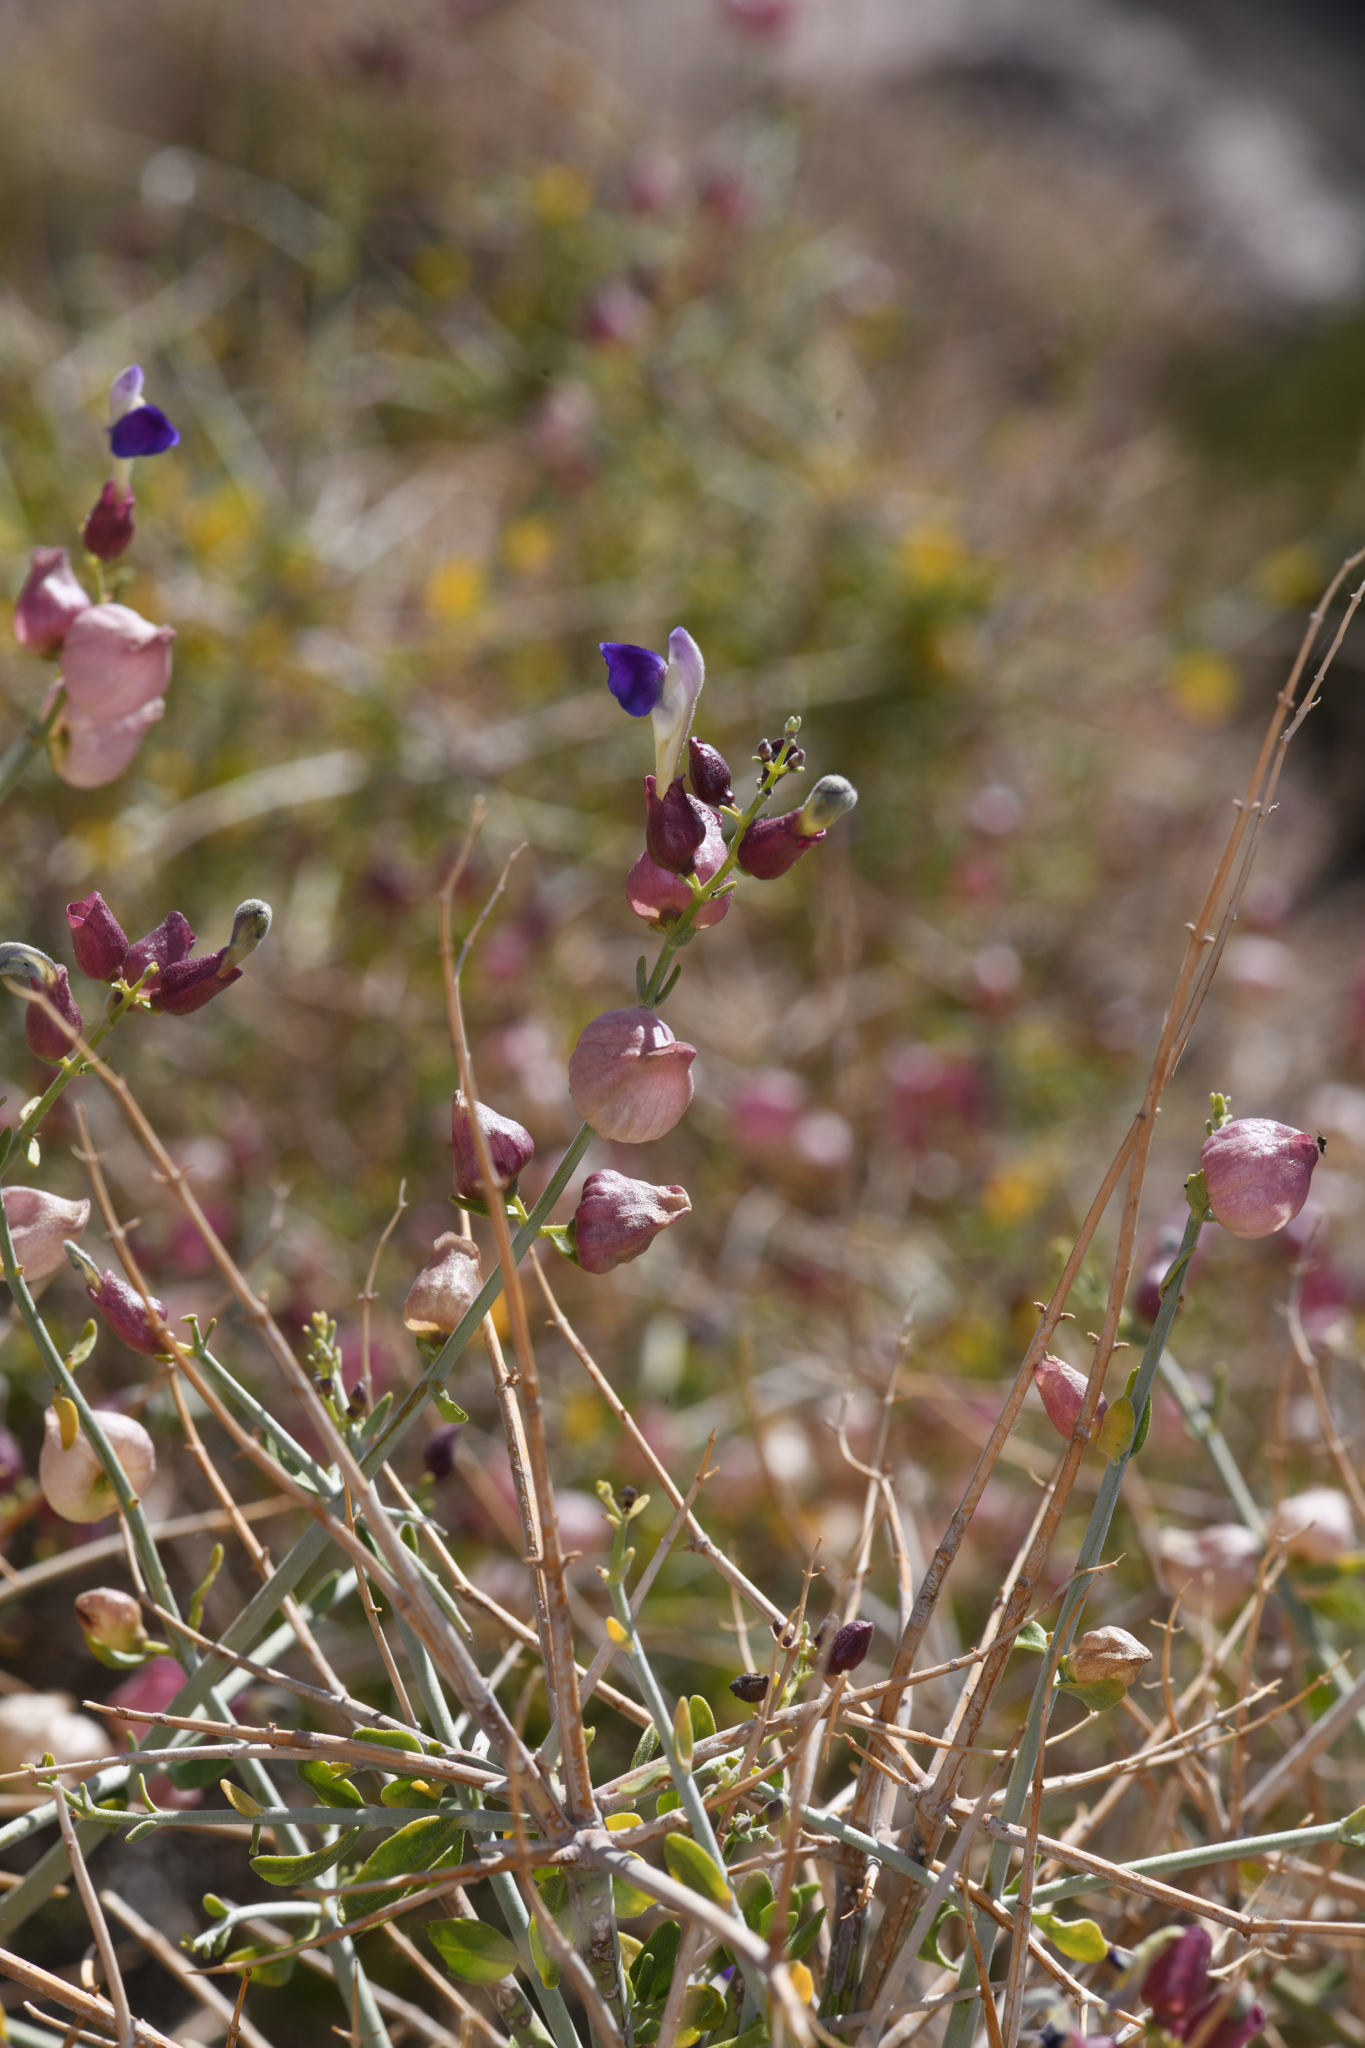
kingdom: Plantae
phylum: Tracheophyta
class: Magnoliopsida
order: Lamiales
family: Lamiaceae
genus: Scutellaria
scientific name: Scutellaria mexicana
